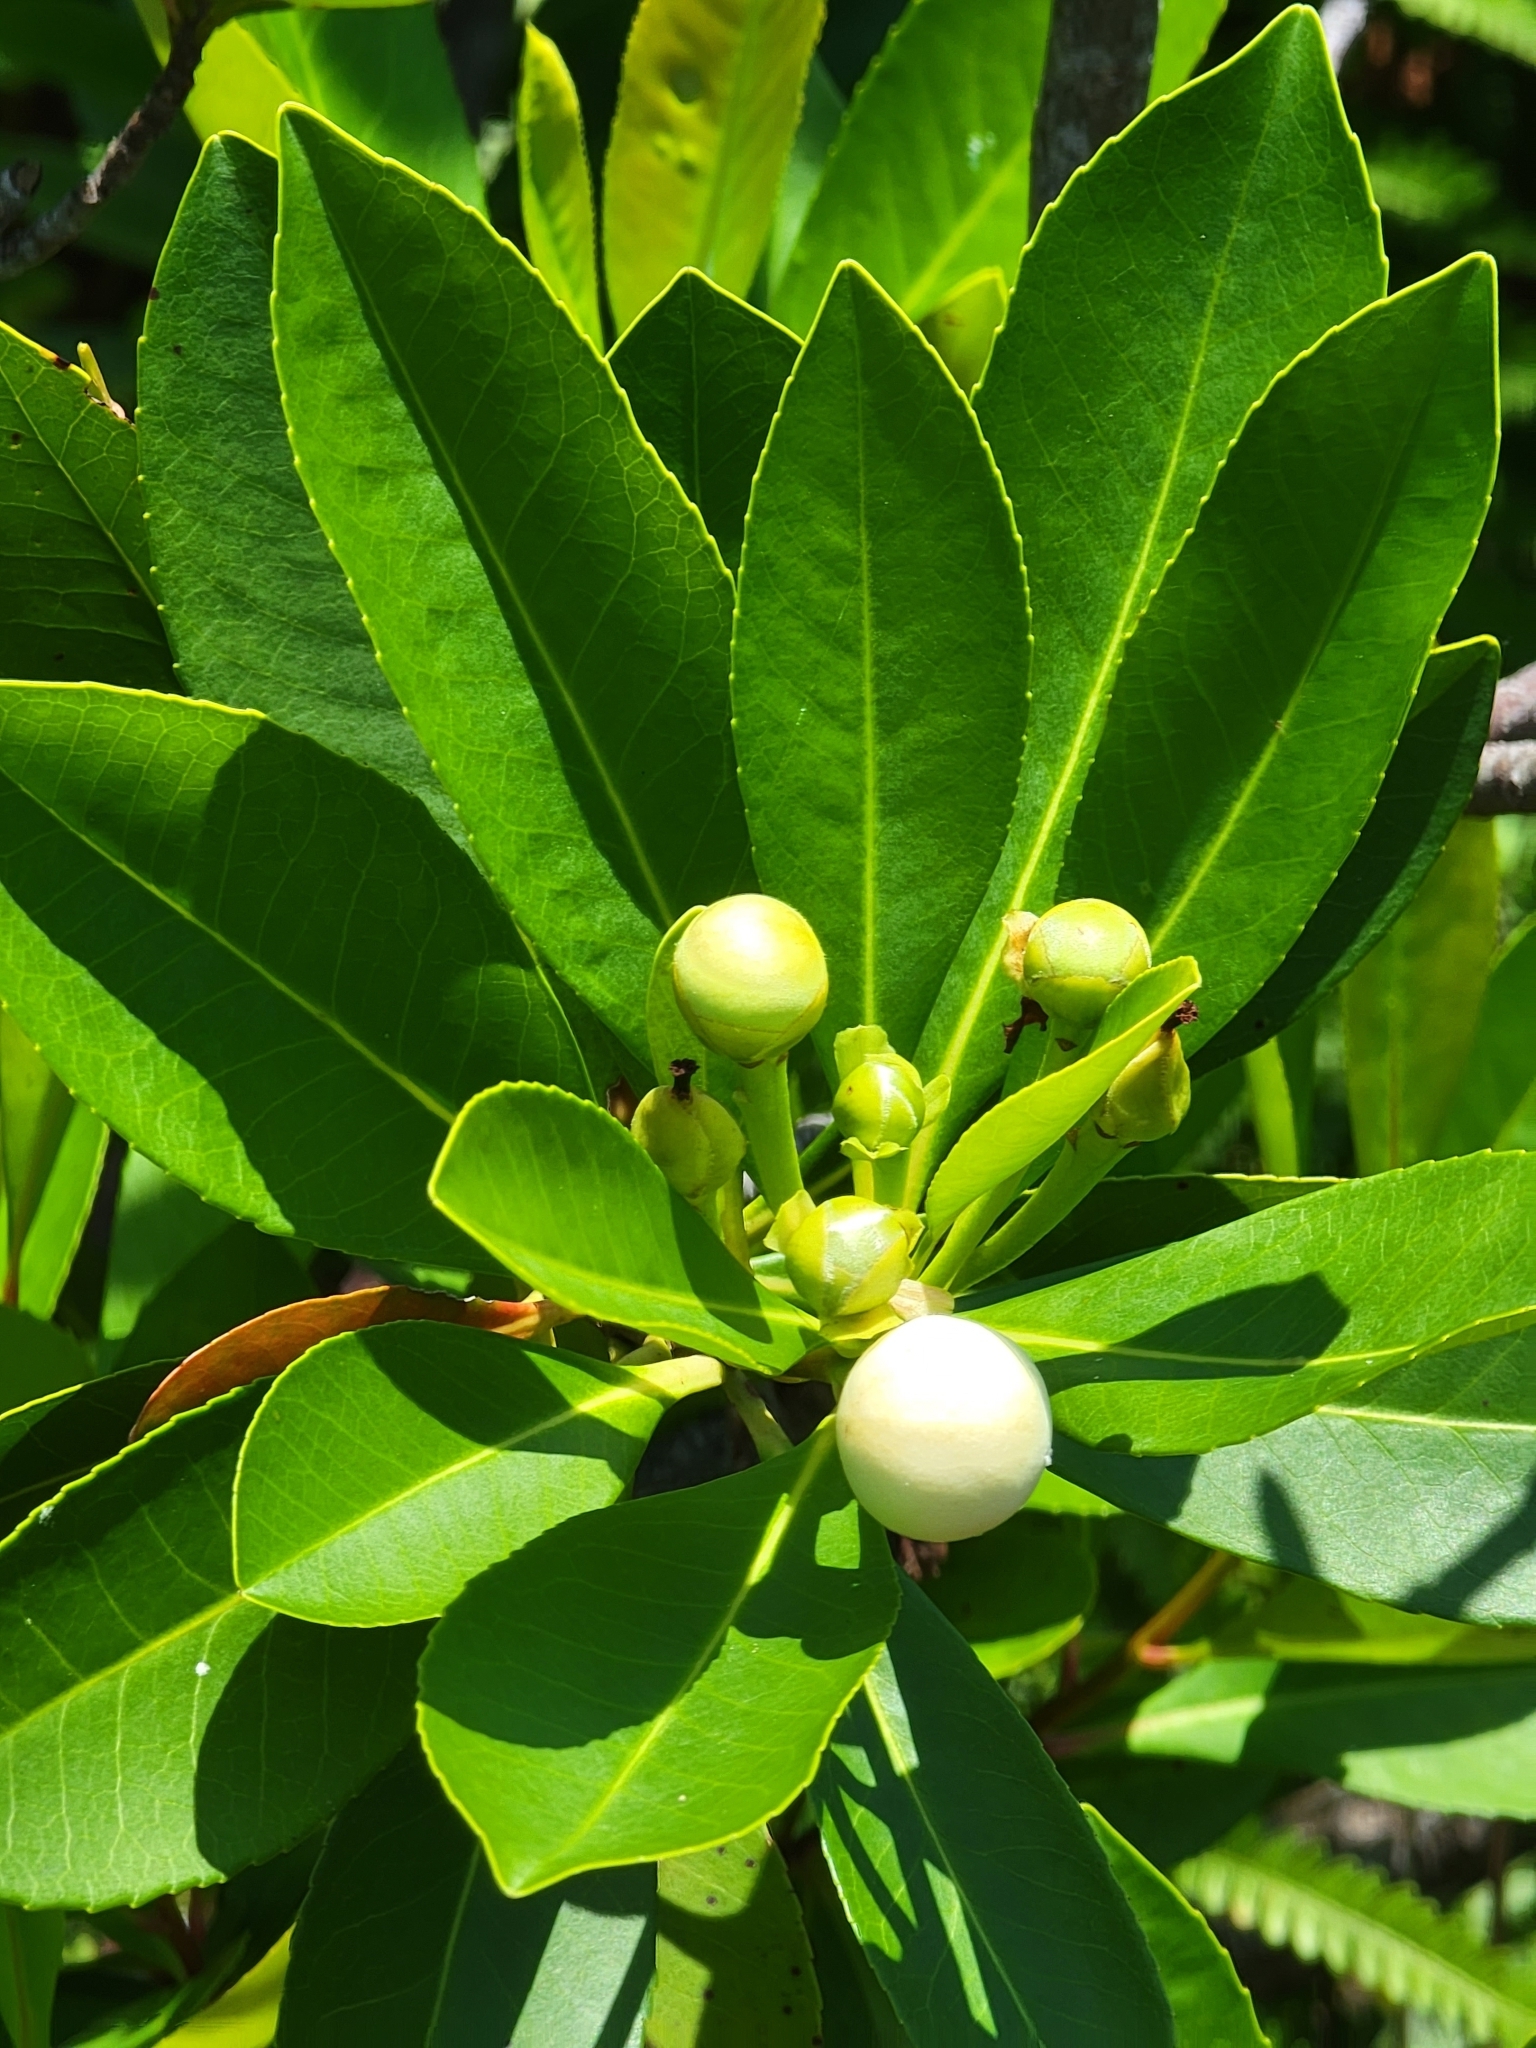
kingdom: Plantae
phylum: Tracheophyta
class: Magnoliopsida
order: Ericales
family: Theaceae
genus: Gordonia
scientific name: Gordonia lasianthus
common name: Loblolly bay
